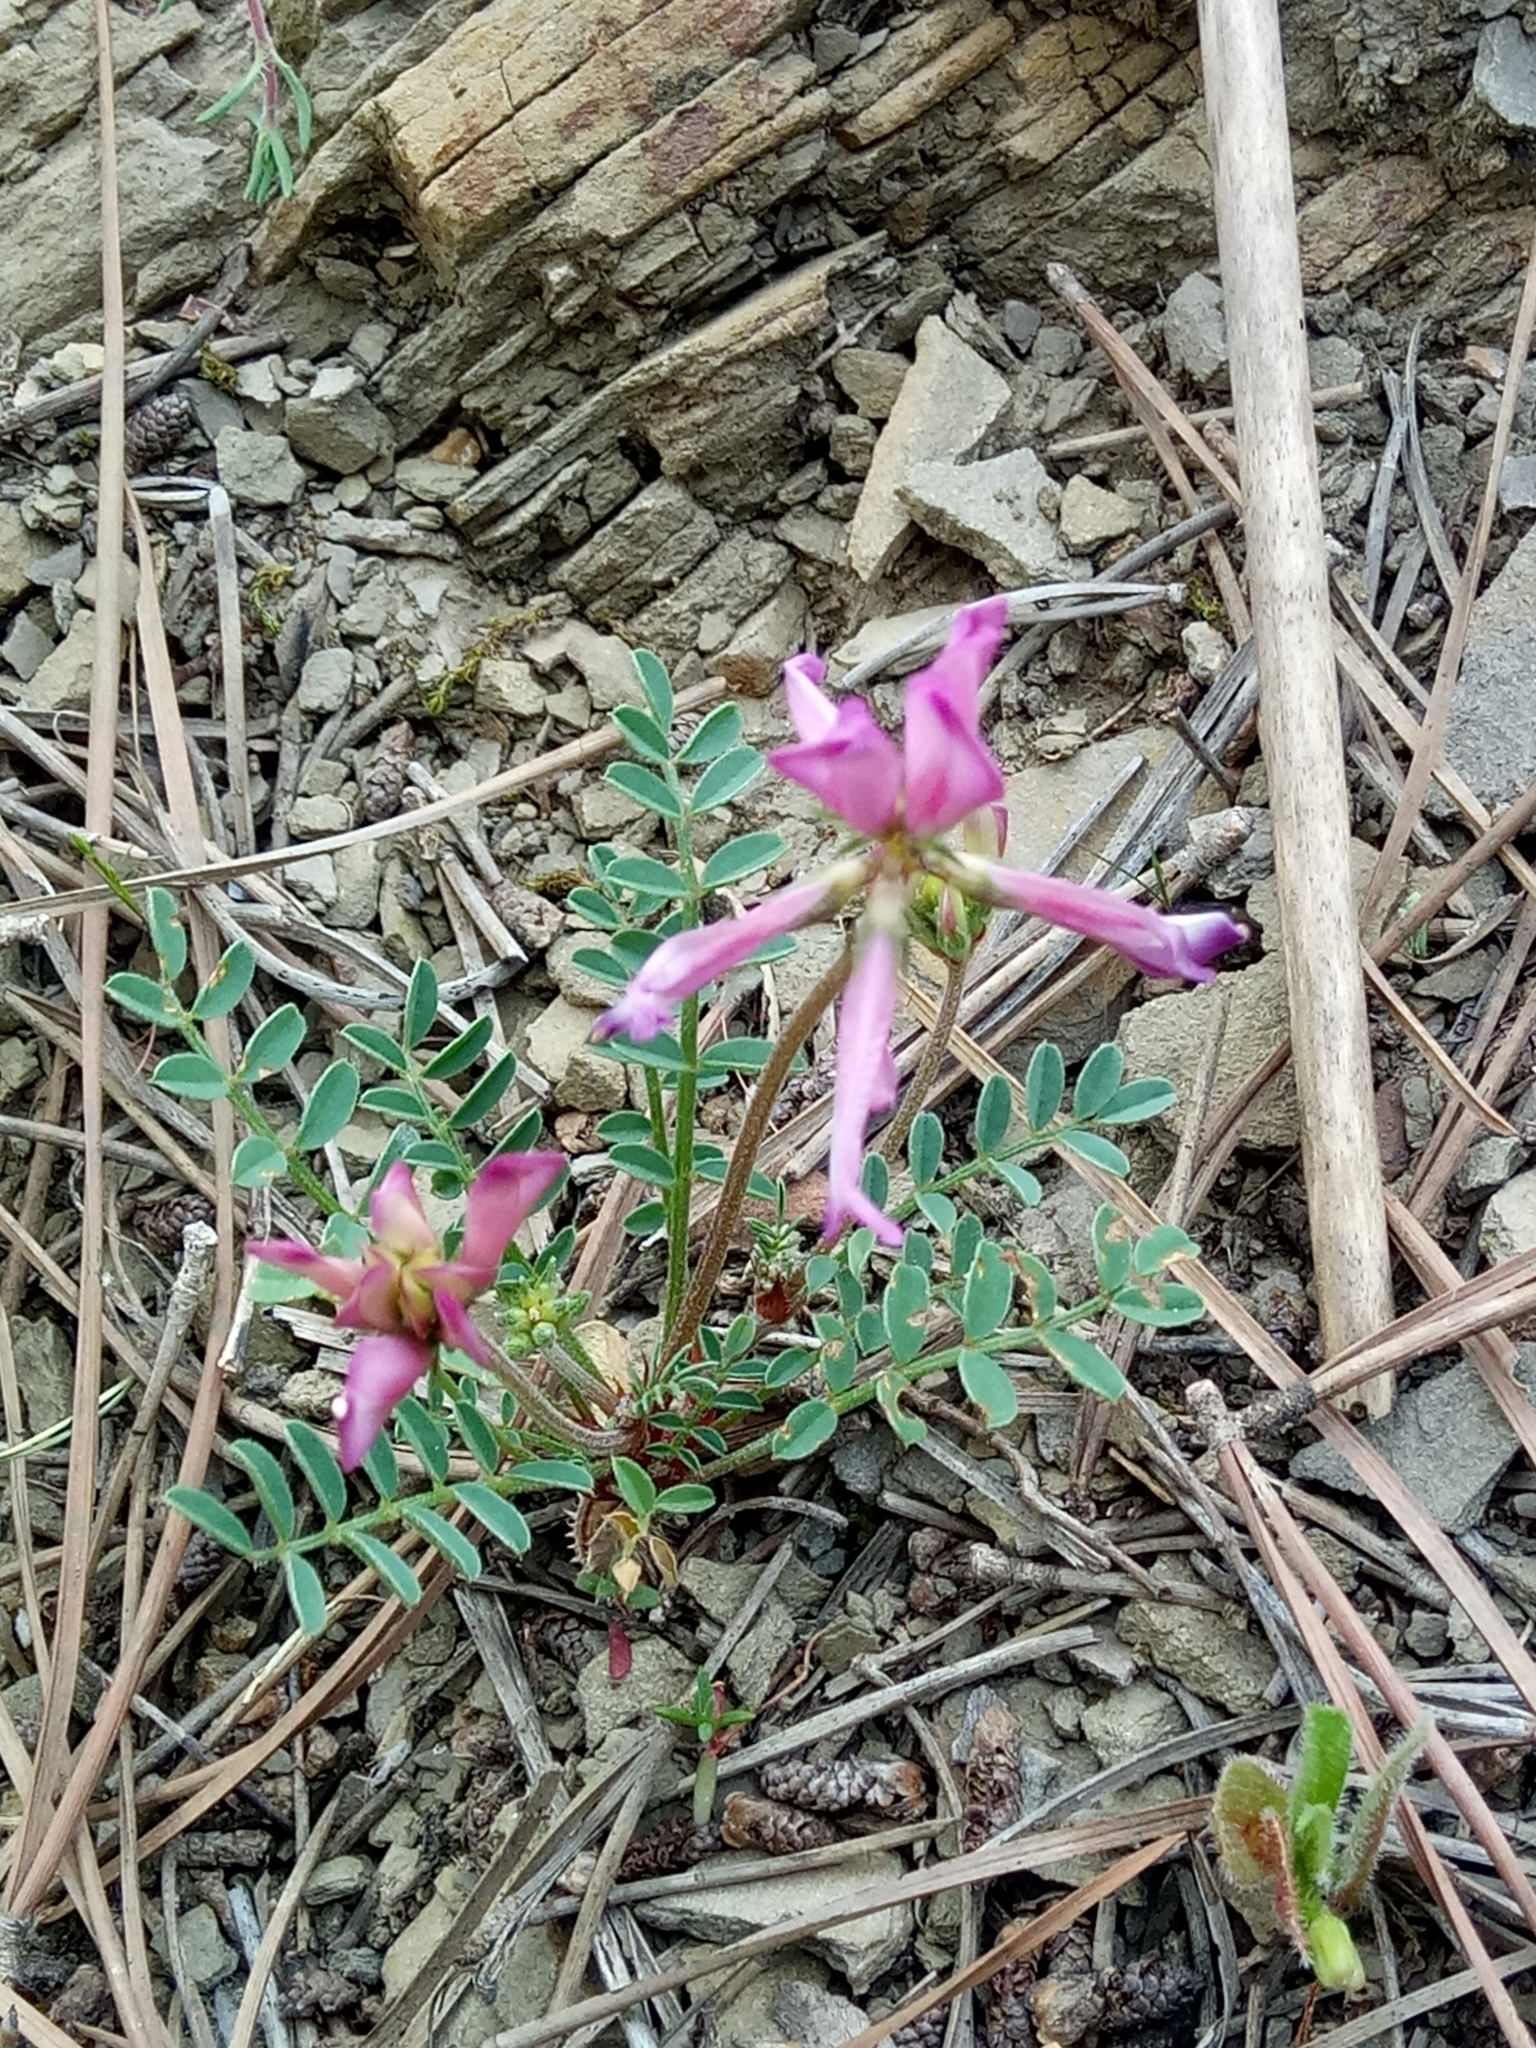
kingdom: Plantae
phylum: Tracheophyta
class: Magnoliopsida
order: Fabales
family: Fabaceae
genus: Sulla
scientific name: Sulla glomerata
